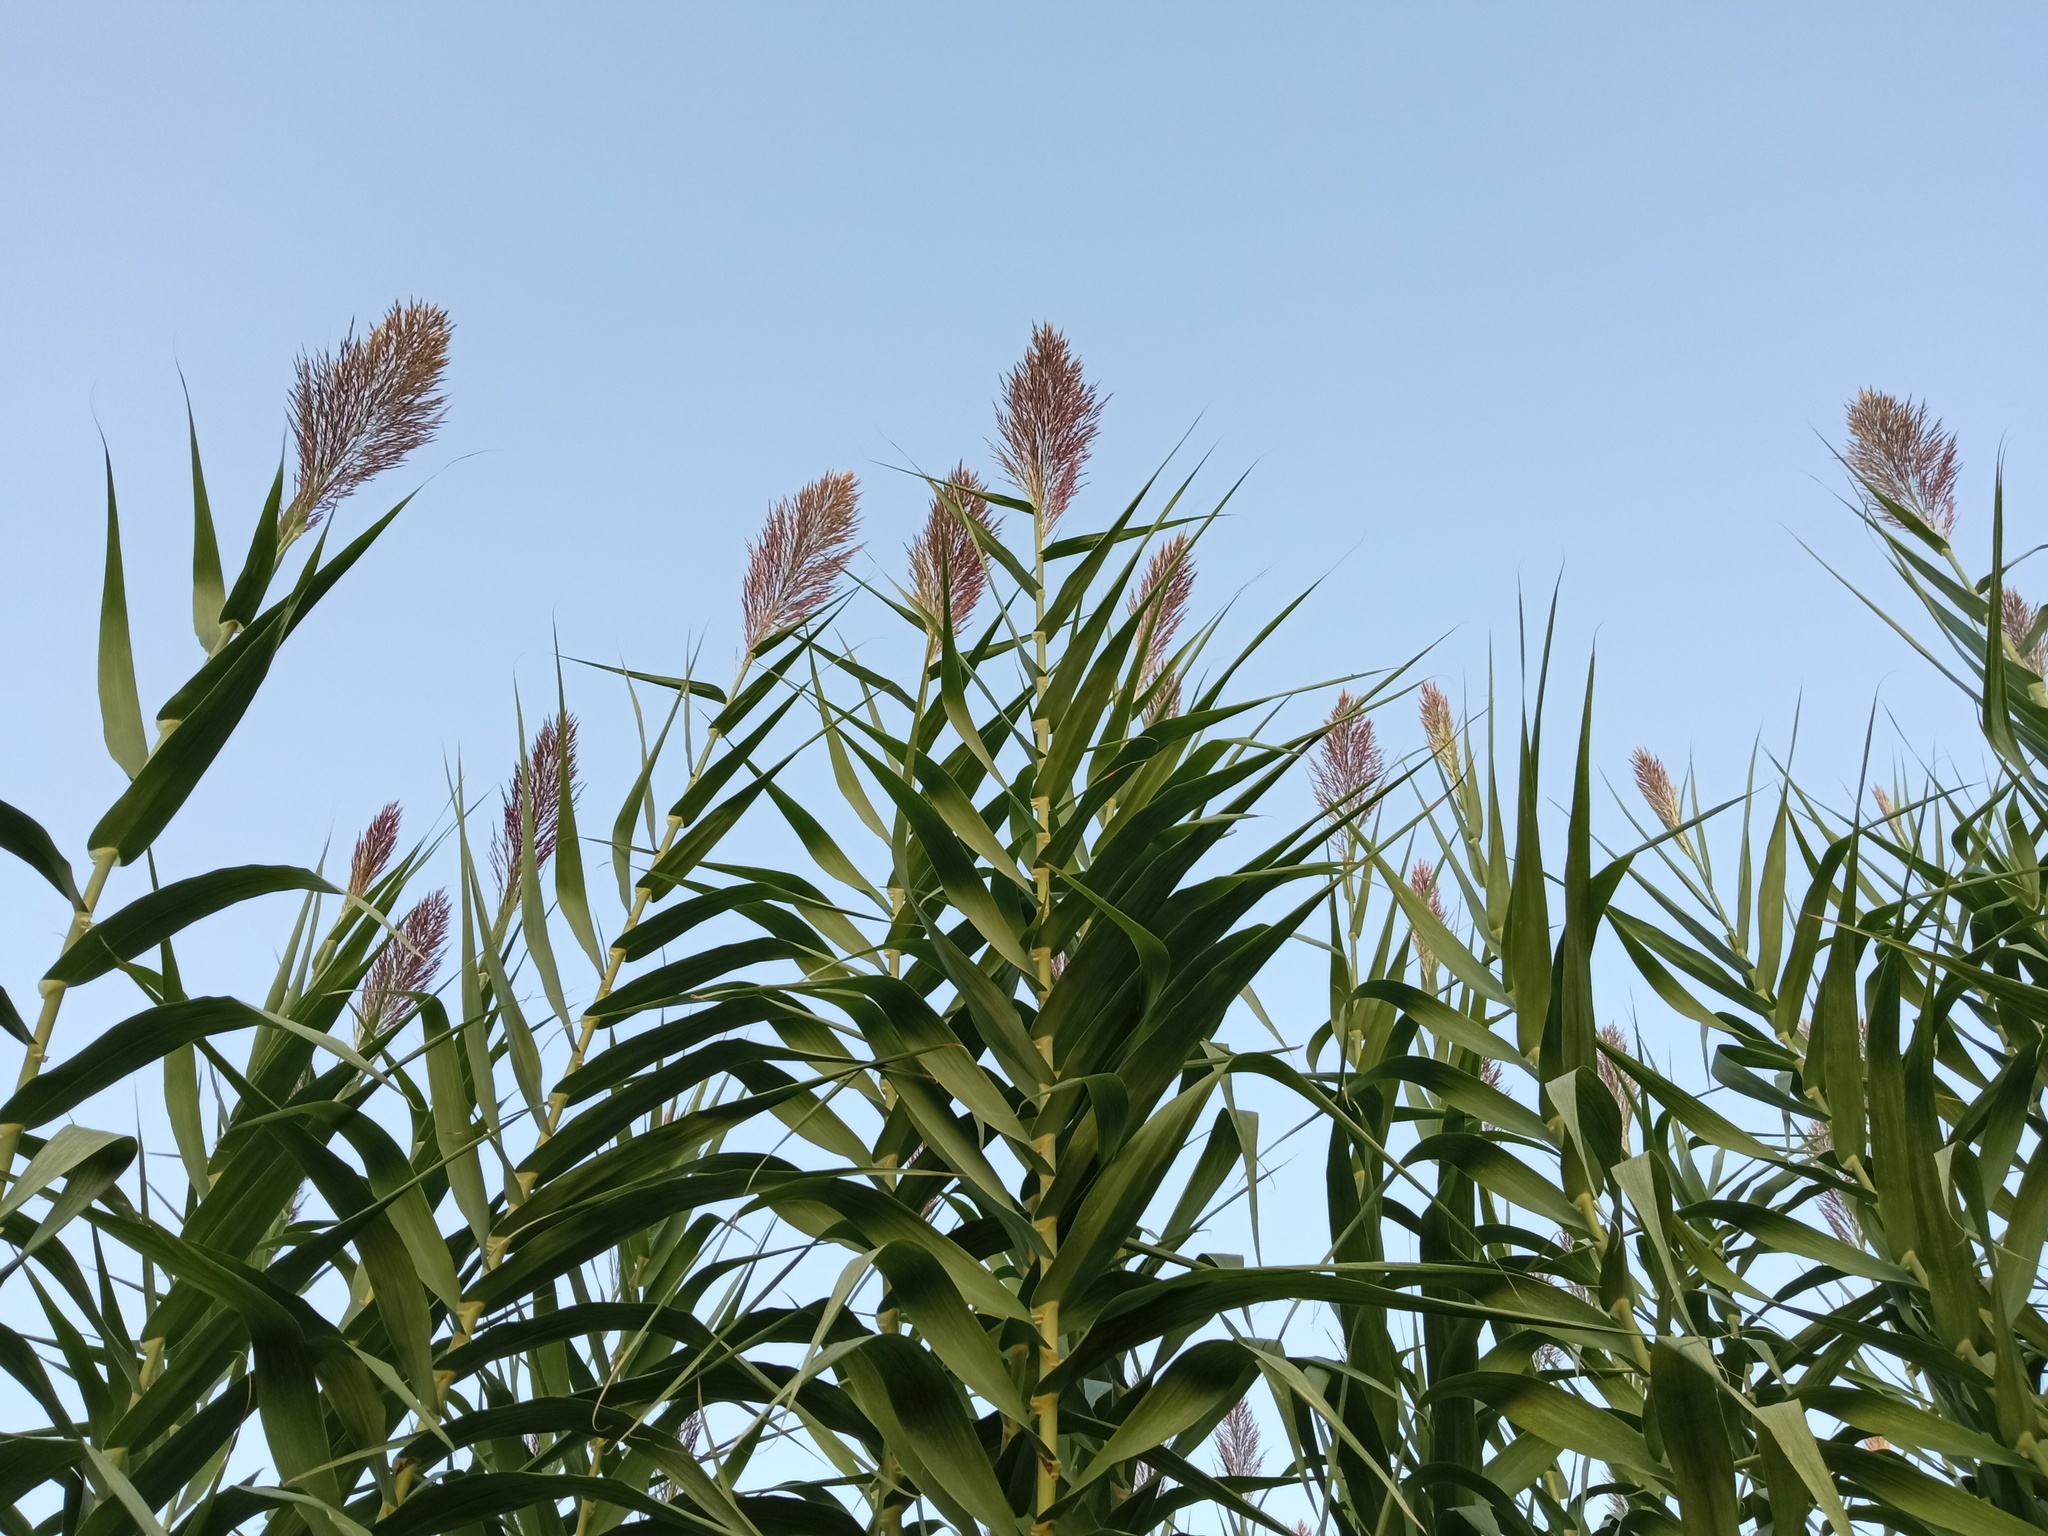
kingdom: Plantae
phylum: Tracheophyta
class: Liliopsida
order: Poales
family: Poaceae
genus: Arundo
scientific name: Arundo donax
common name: Giant reed
